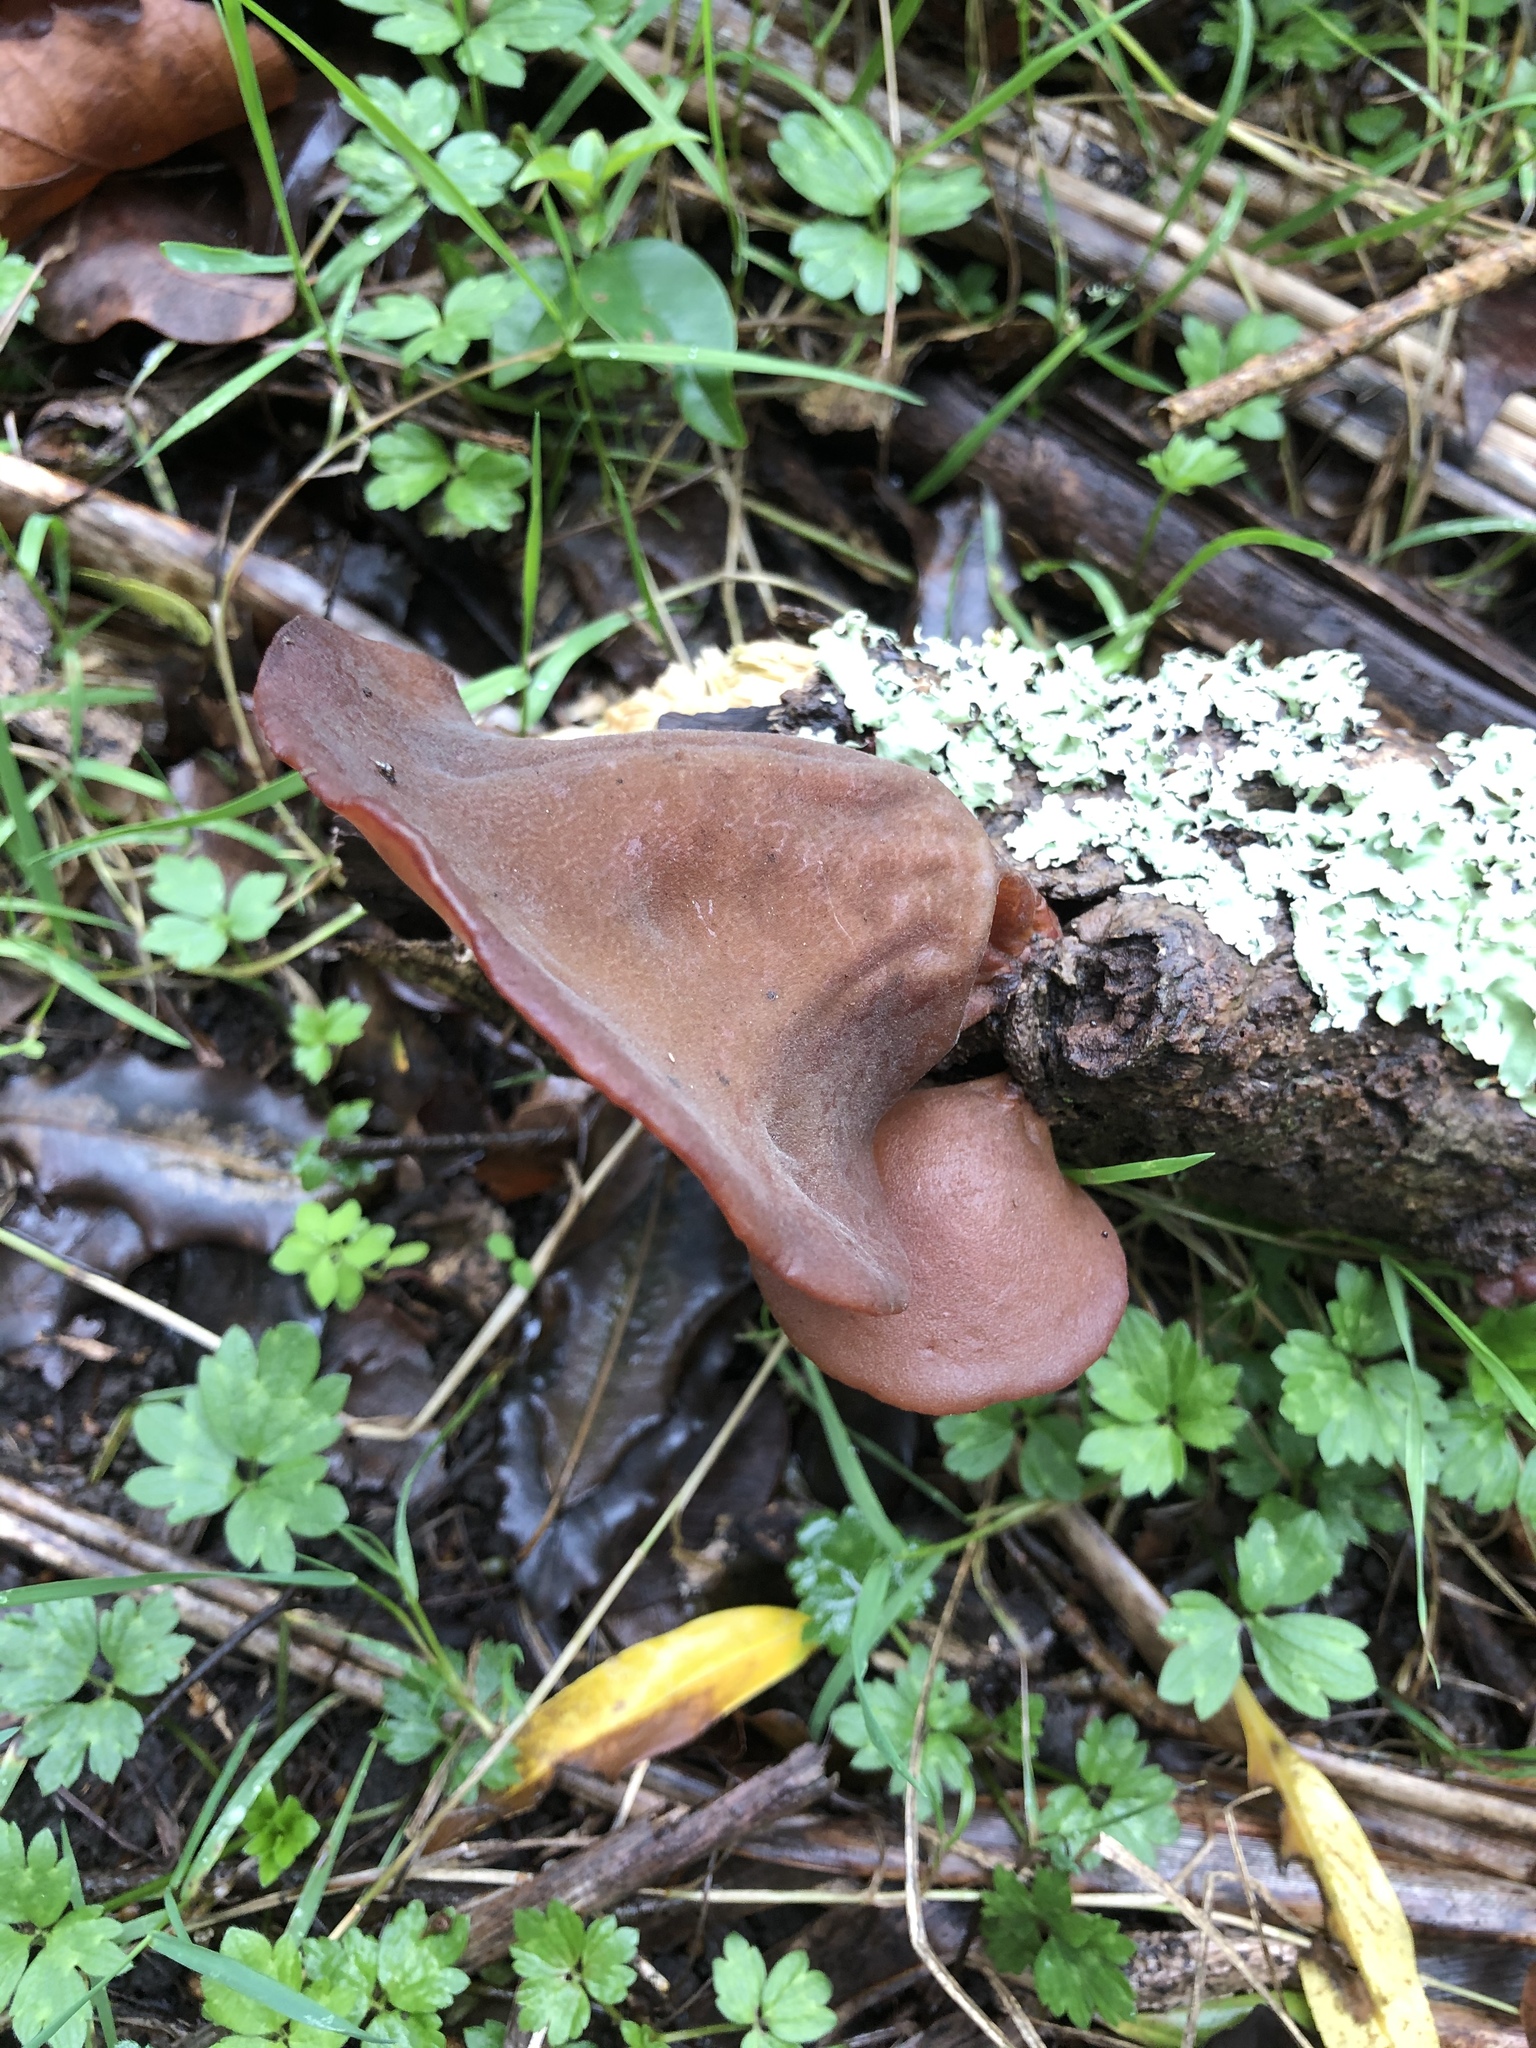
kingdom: Fungi
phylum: Basidiomycota
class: Agaricomycetes
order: Auriculariales
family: Auriculariaceae
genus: Auricularia
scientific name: Auricularia cornea
